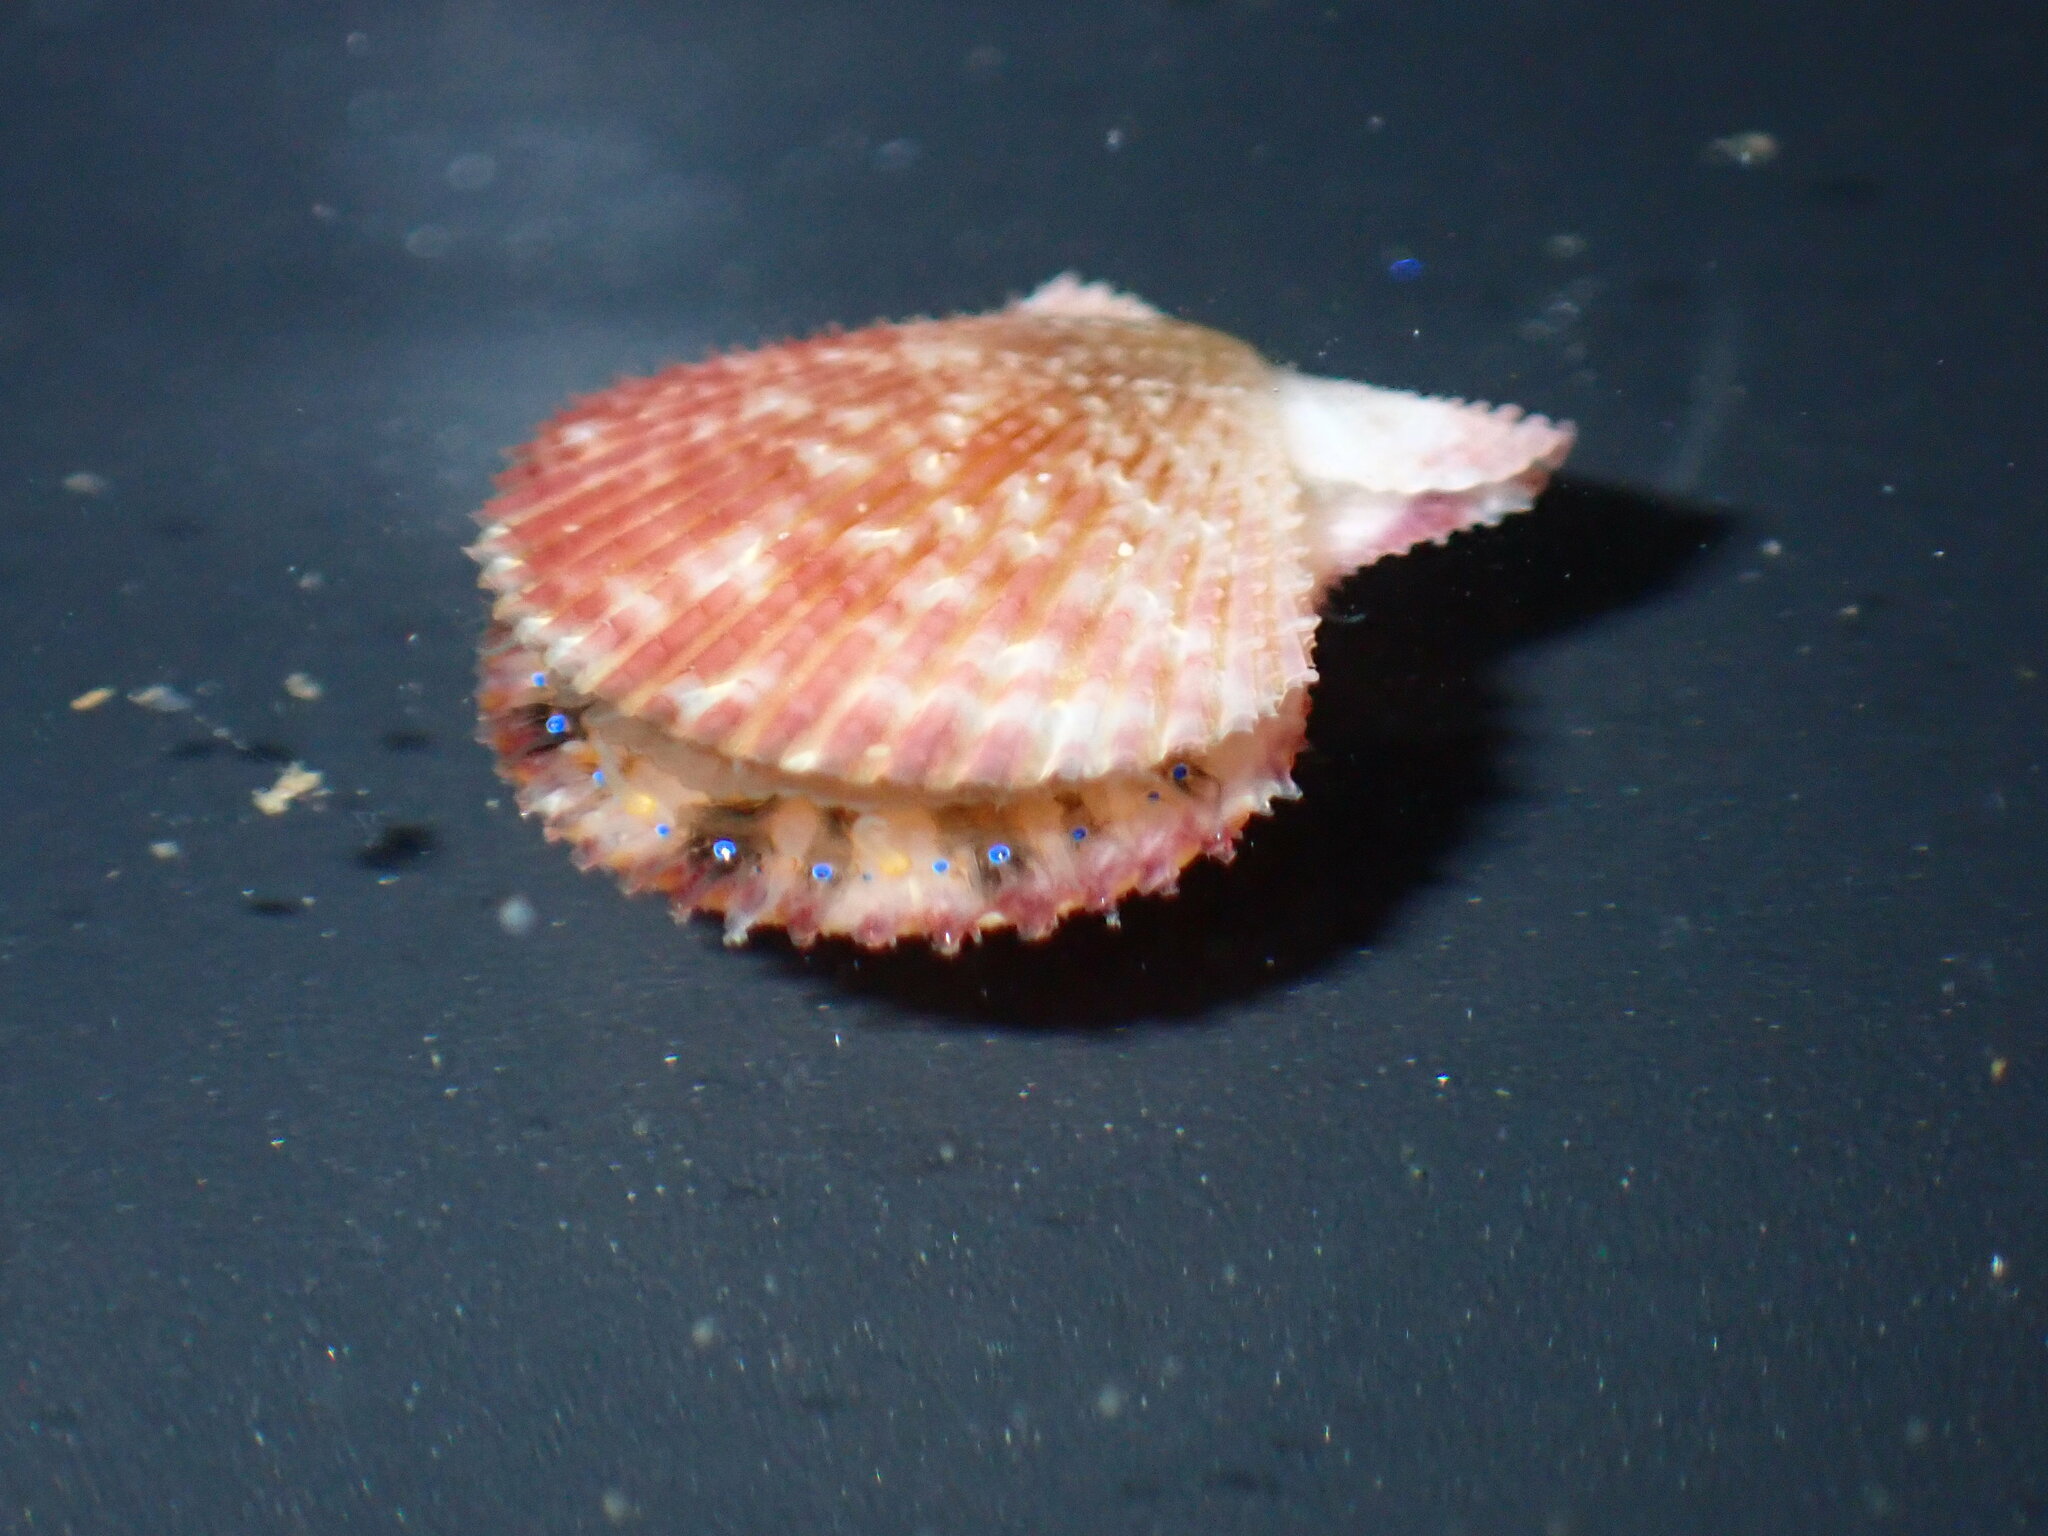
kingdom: Animalia
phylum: Mollusca
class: Bivalvia
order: Pectinida
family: Pectinidae
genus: Mimachlamys
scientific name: Mimachlamys asperrima
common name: Austral scallop
